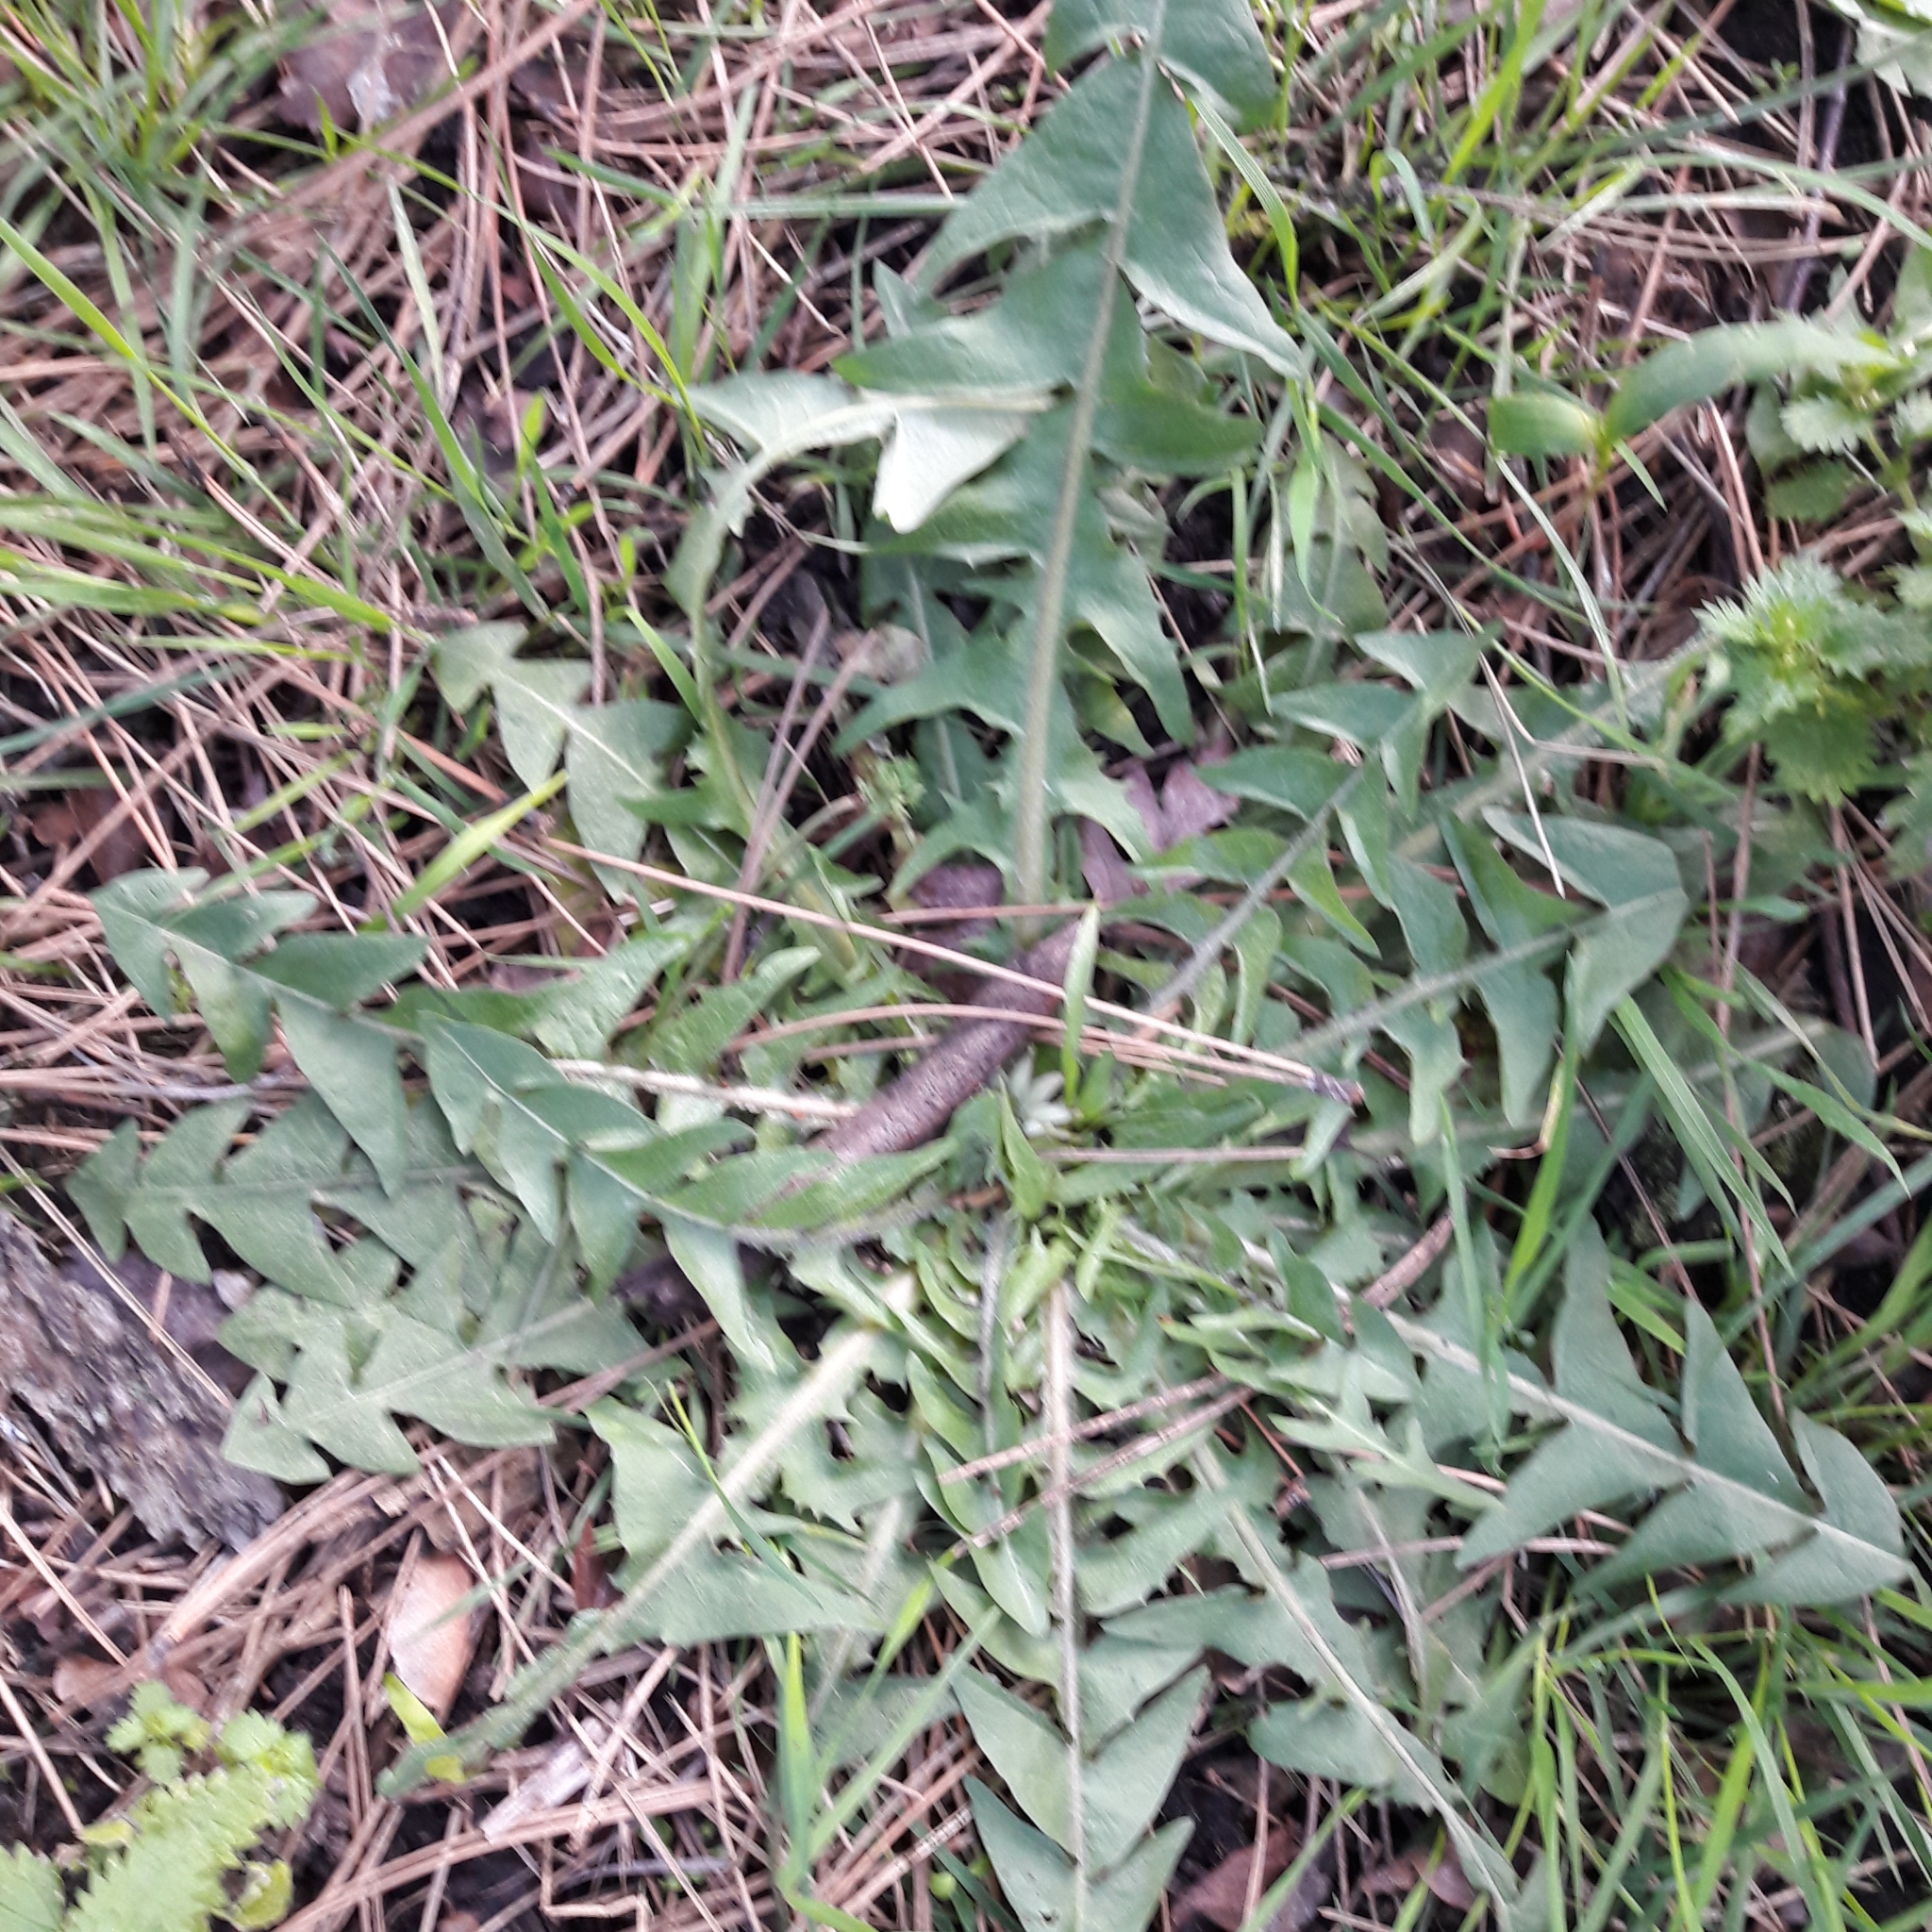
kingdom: Plantae
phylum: Tracheophyta
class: Magnoliopsida
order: Asterales
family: Asteraceae
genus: Taraxacum
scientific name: Taraxacum officinale
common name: Common dandelion
